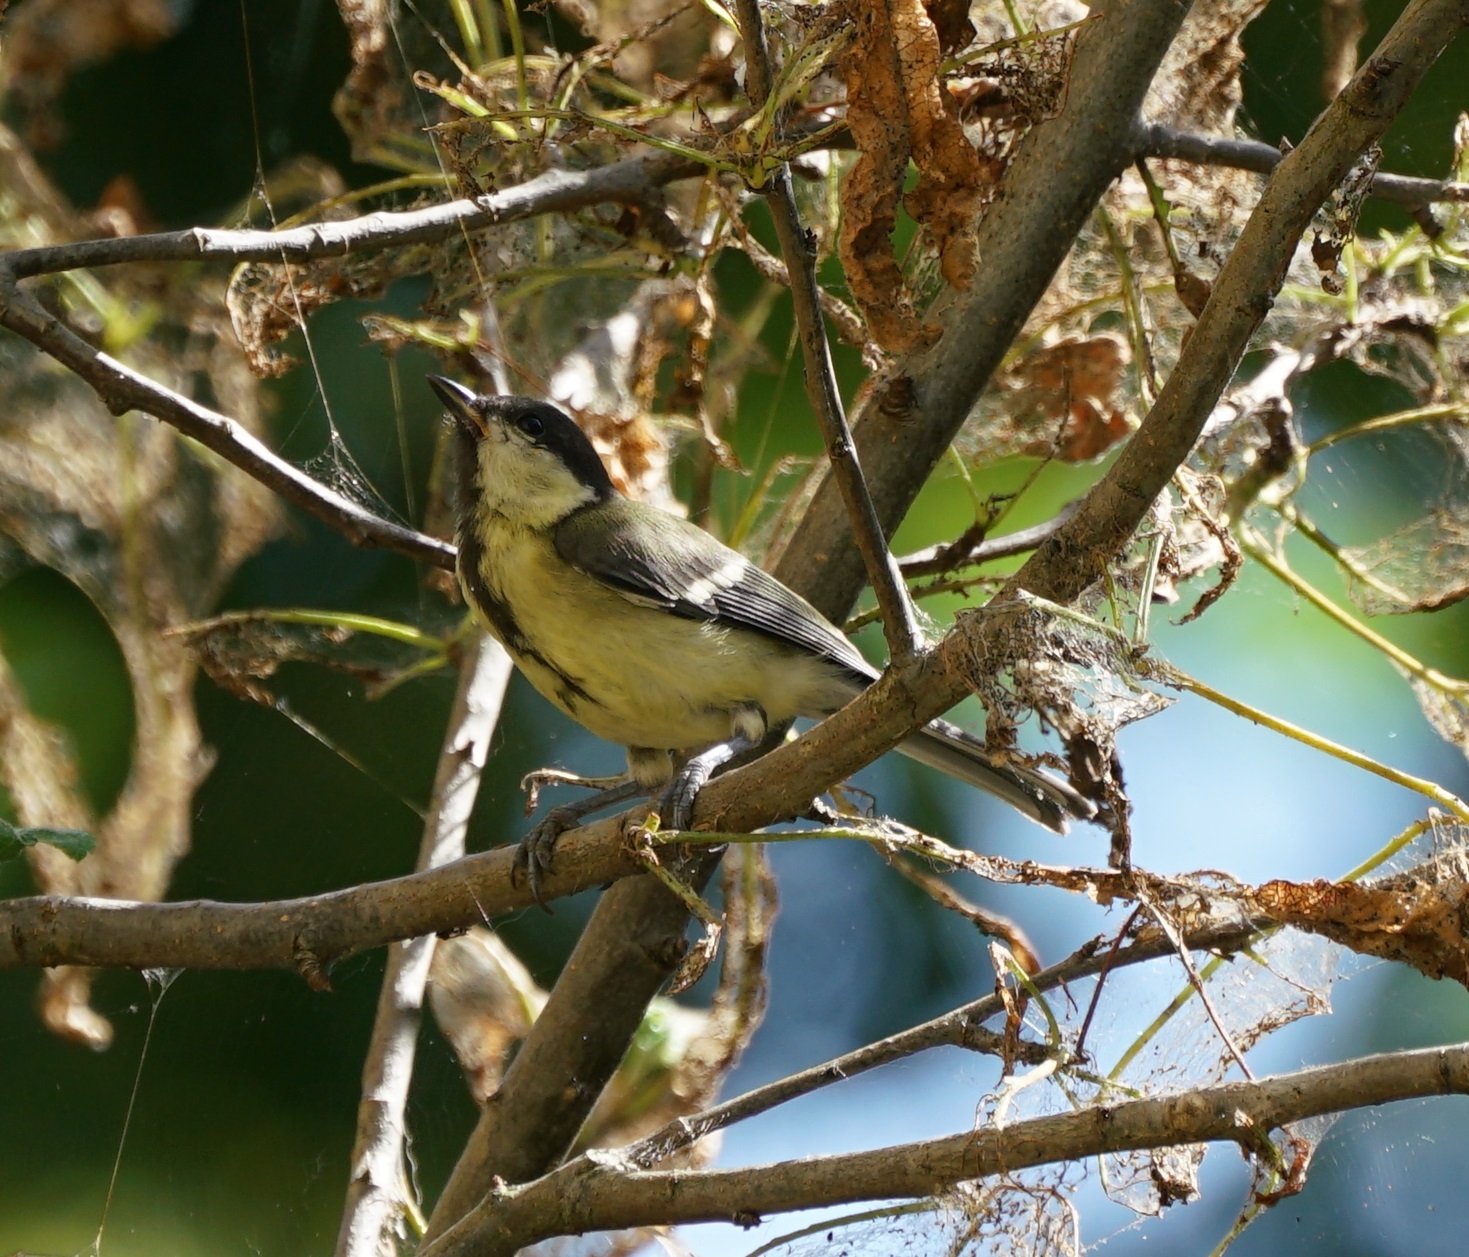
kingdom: Animalia
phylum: Chordata
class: Aves
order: Passeriformes
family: Paridae
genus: Parus
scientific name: Parus major
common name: Great tit
